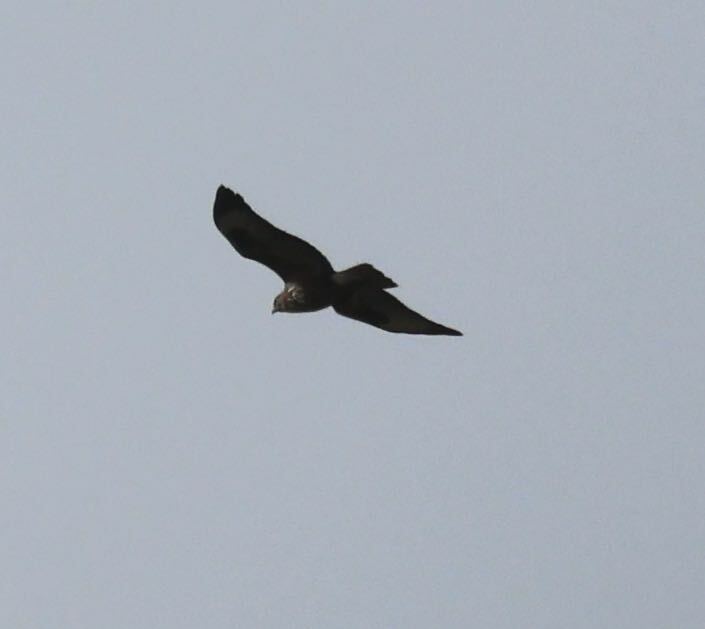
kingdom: Animalia
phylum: Chordata
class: Aves
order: Accipitriformes
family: Accipitridae
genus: Buteo
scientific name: Buteo buteo
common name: Common buzzard
